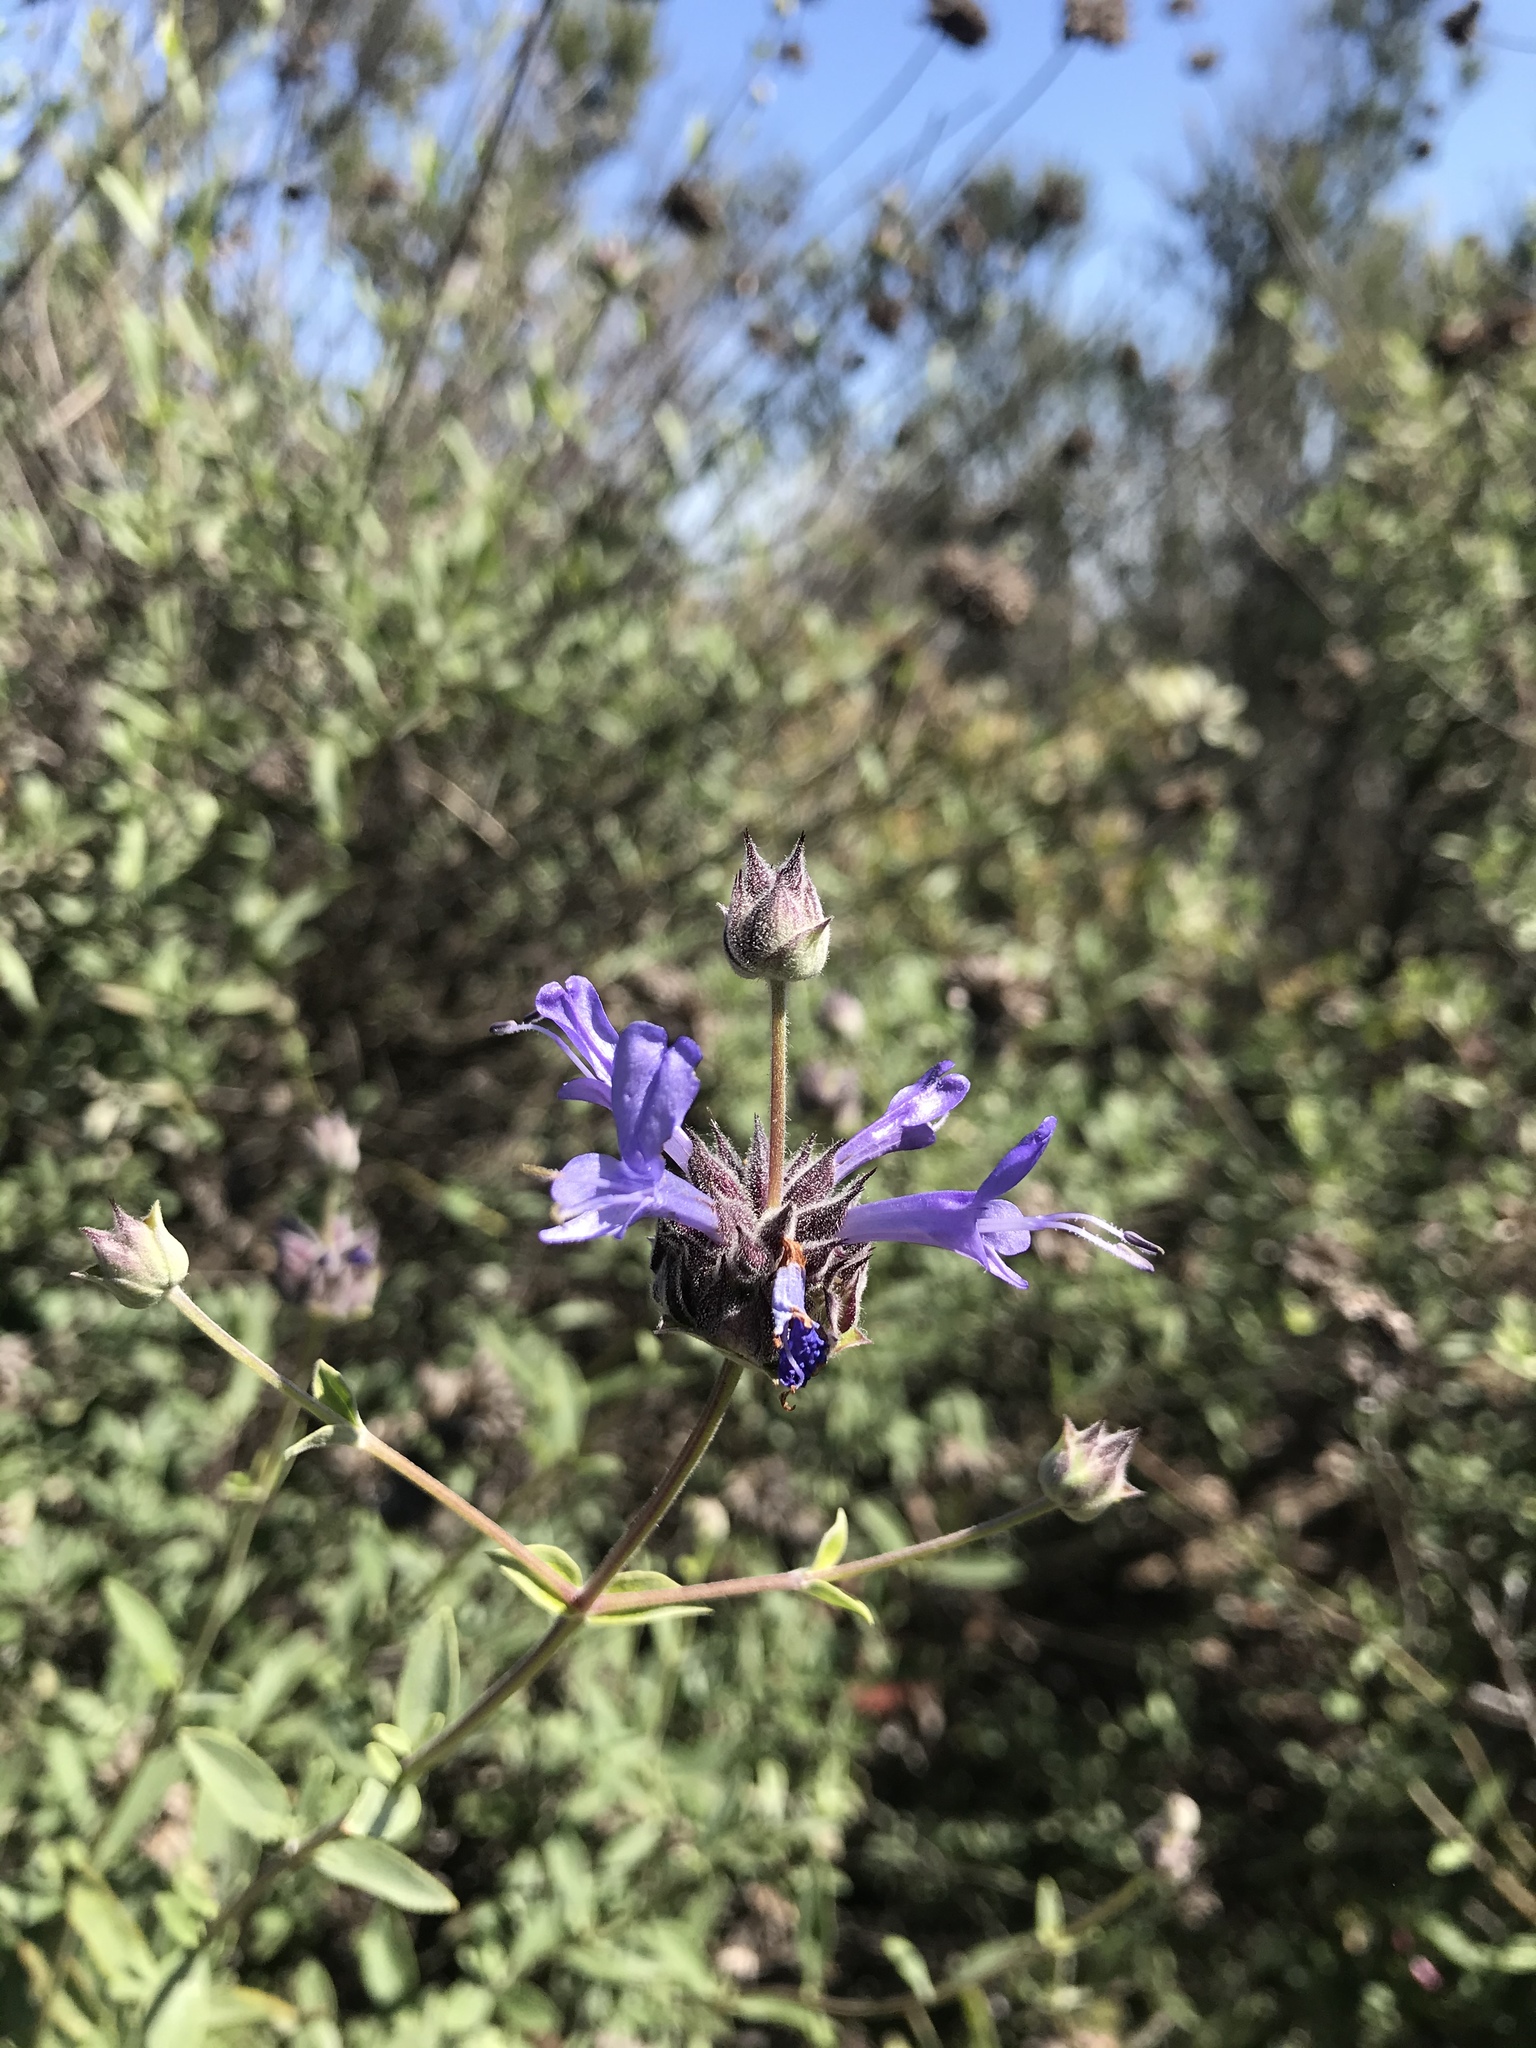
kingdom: Plantae
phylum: Tracheophyta
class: Magnoliopsida
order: Lamiales
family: Lamiaceae
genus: Salvia
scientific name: Salvia clevelandii
